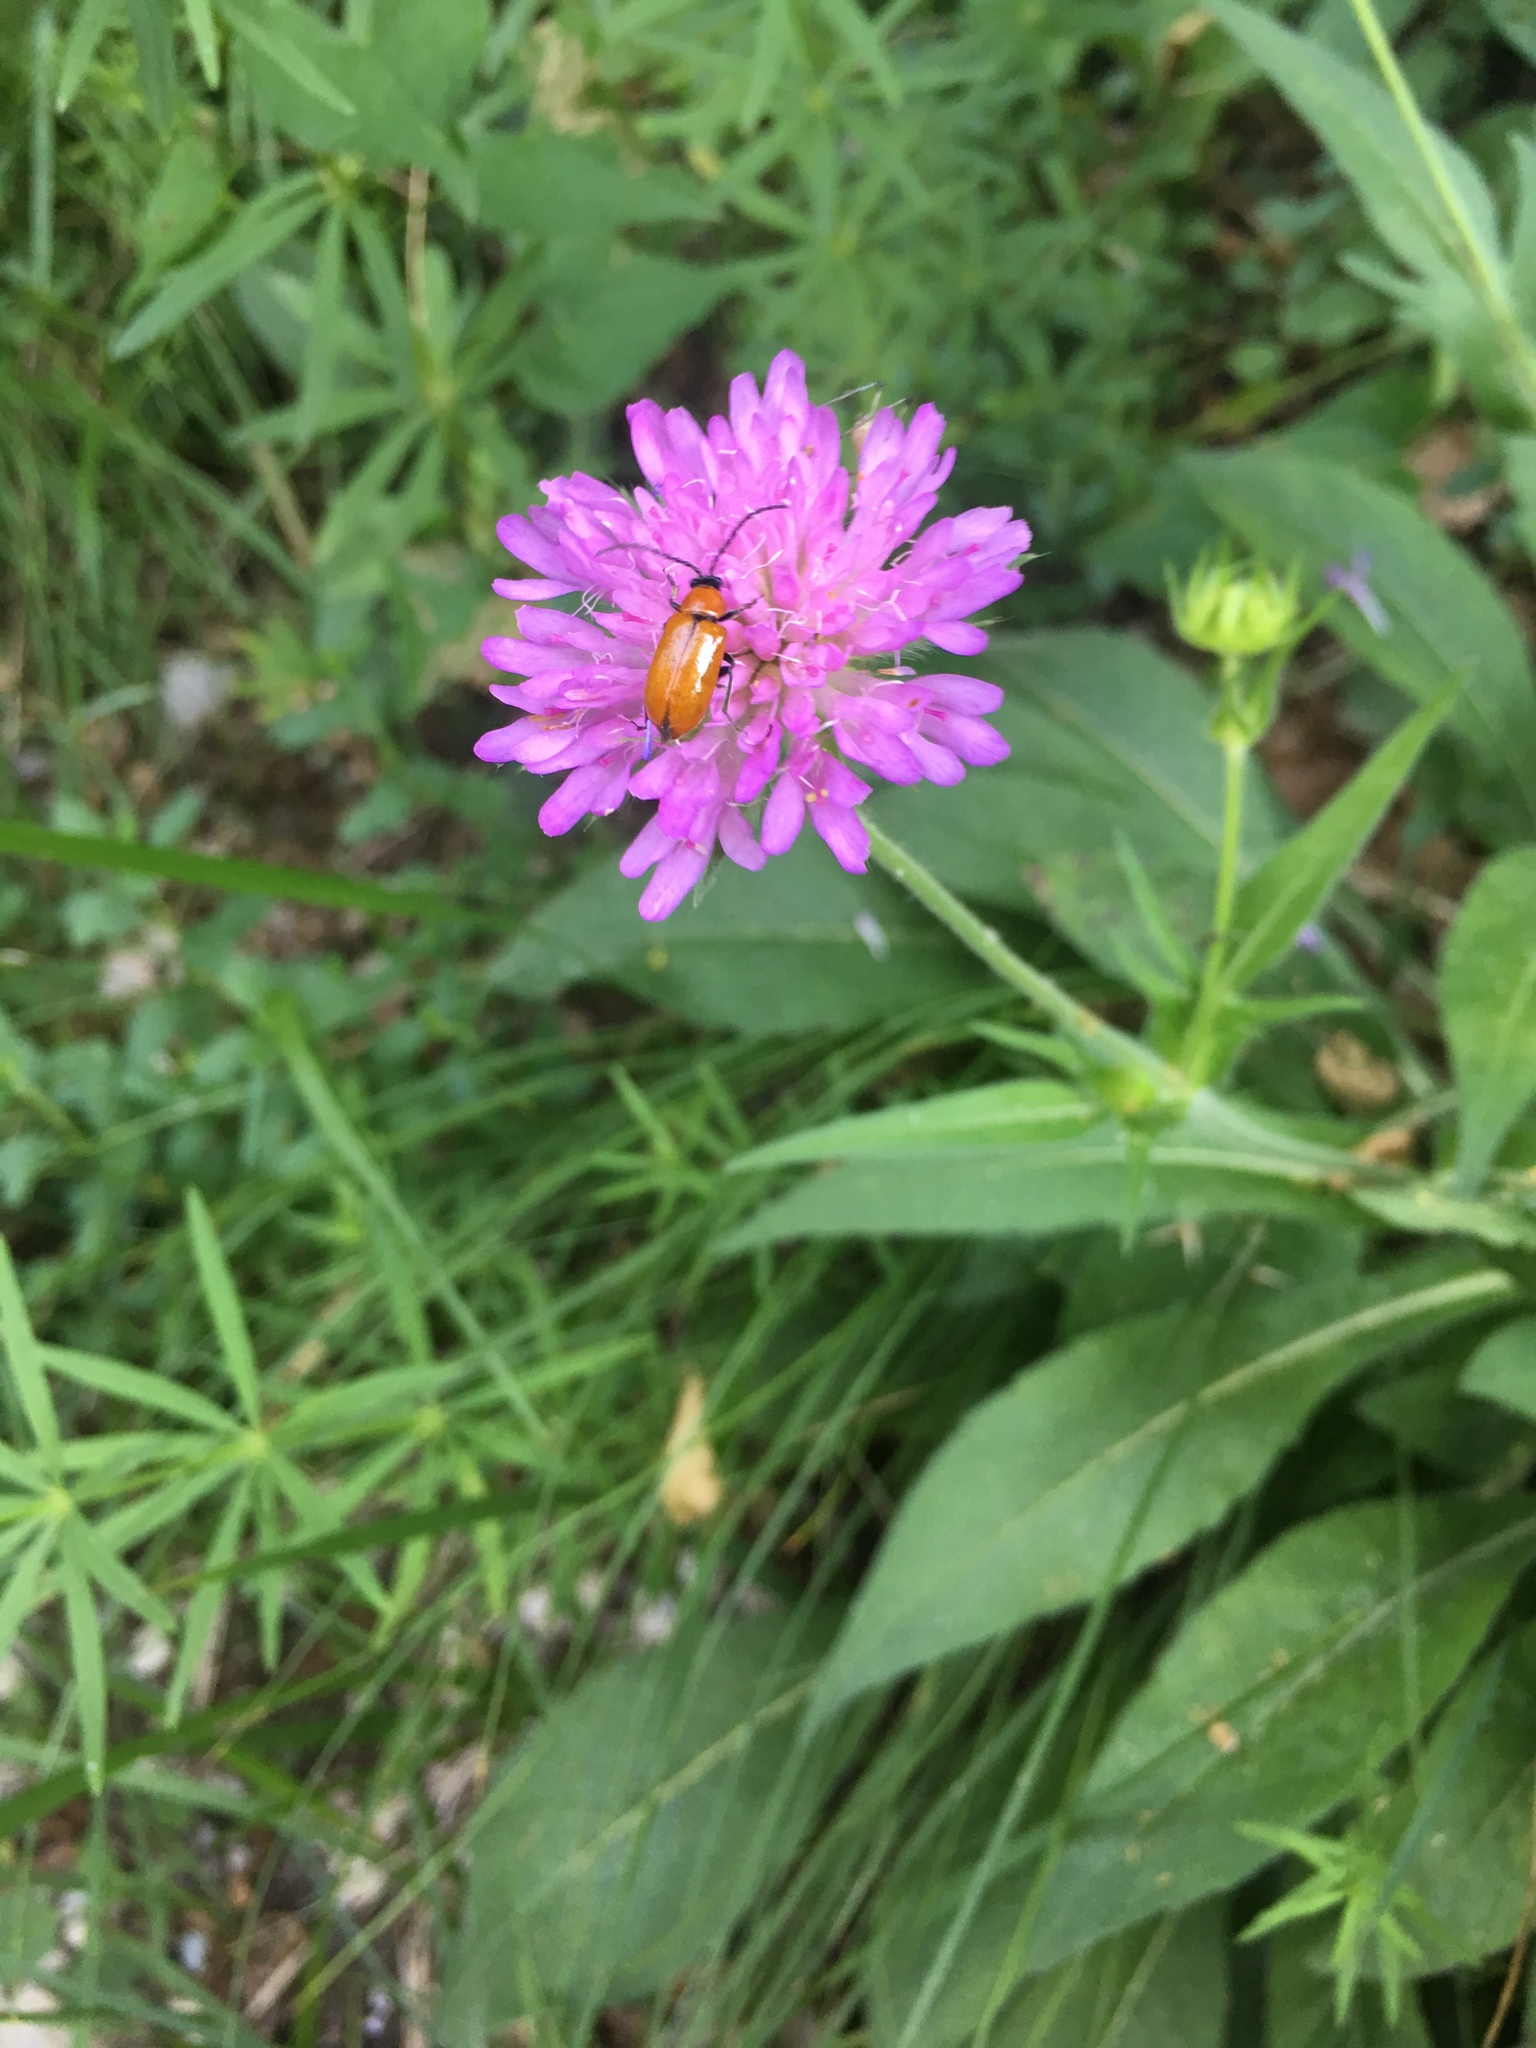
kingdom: Animalia
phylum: Arthropoda
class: Insecta
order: Coleoptera
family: Chrysomelidae
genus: Exosoma
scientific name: Exosoma lusitanicum
